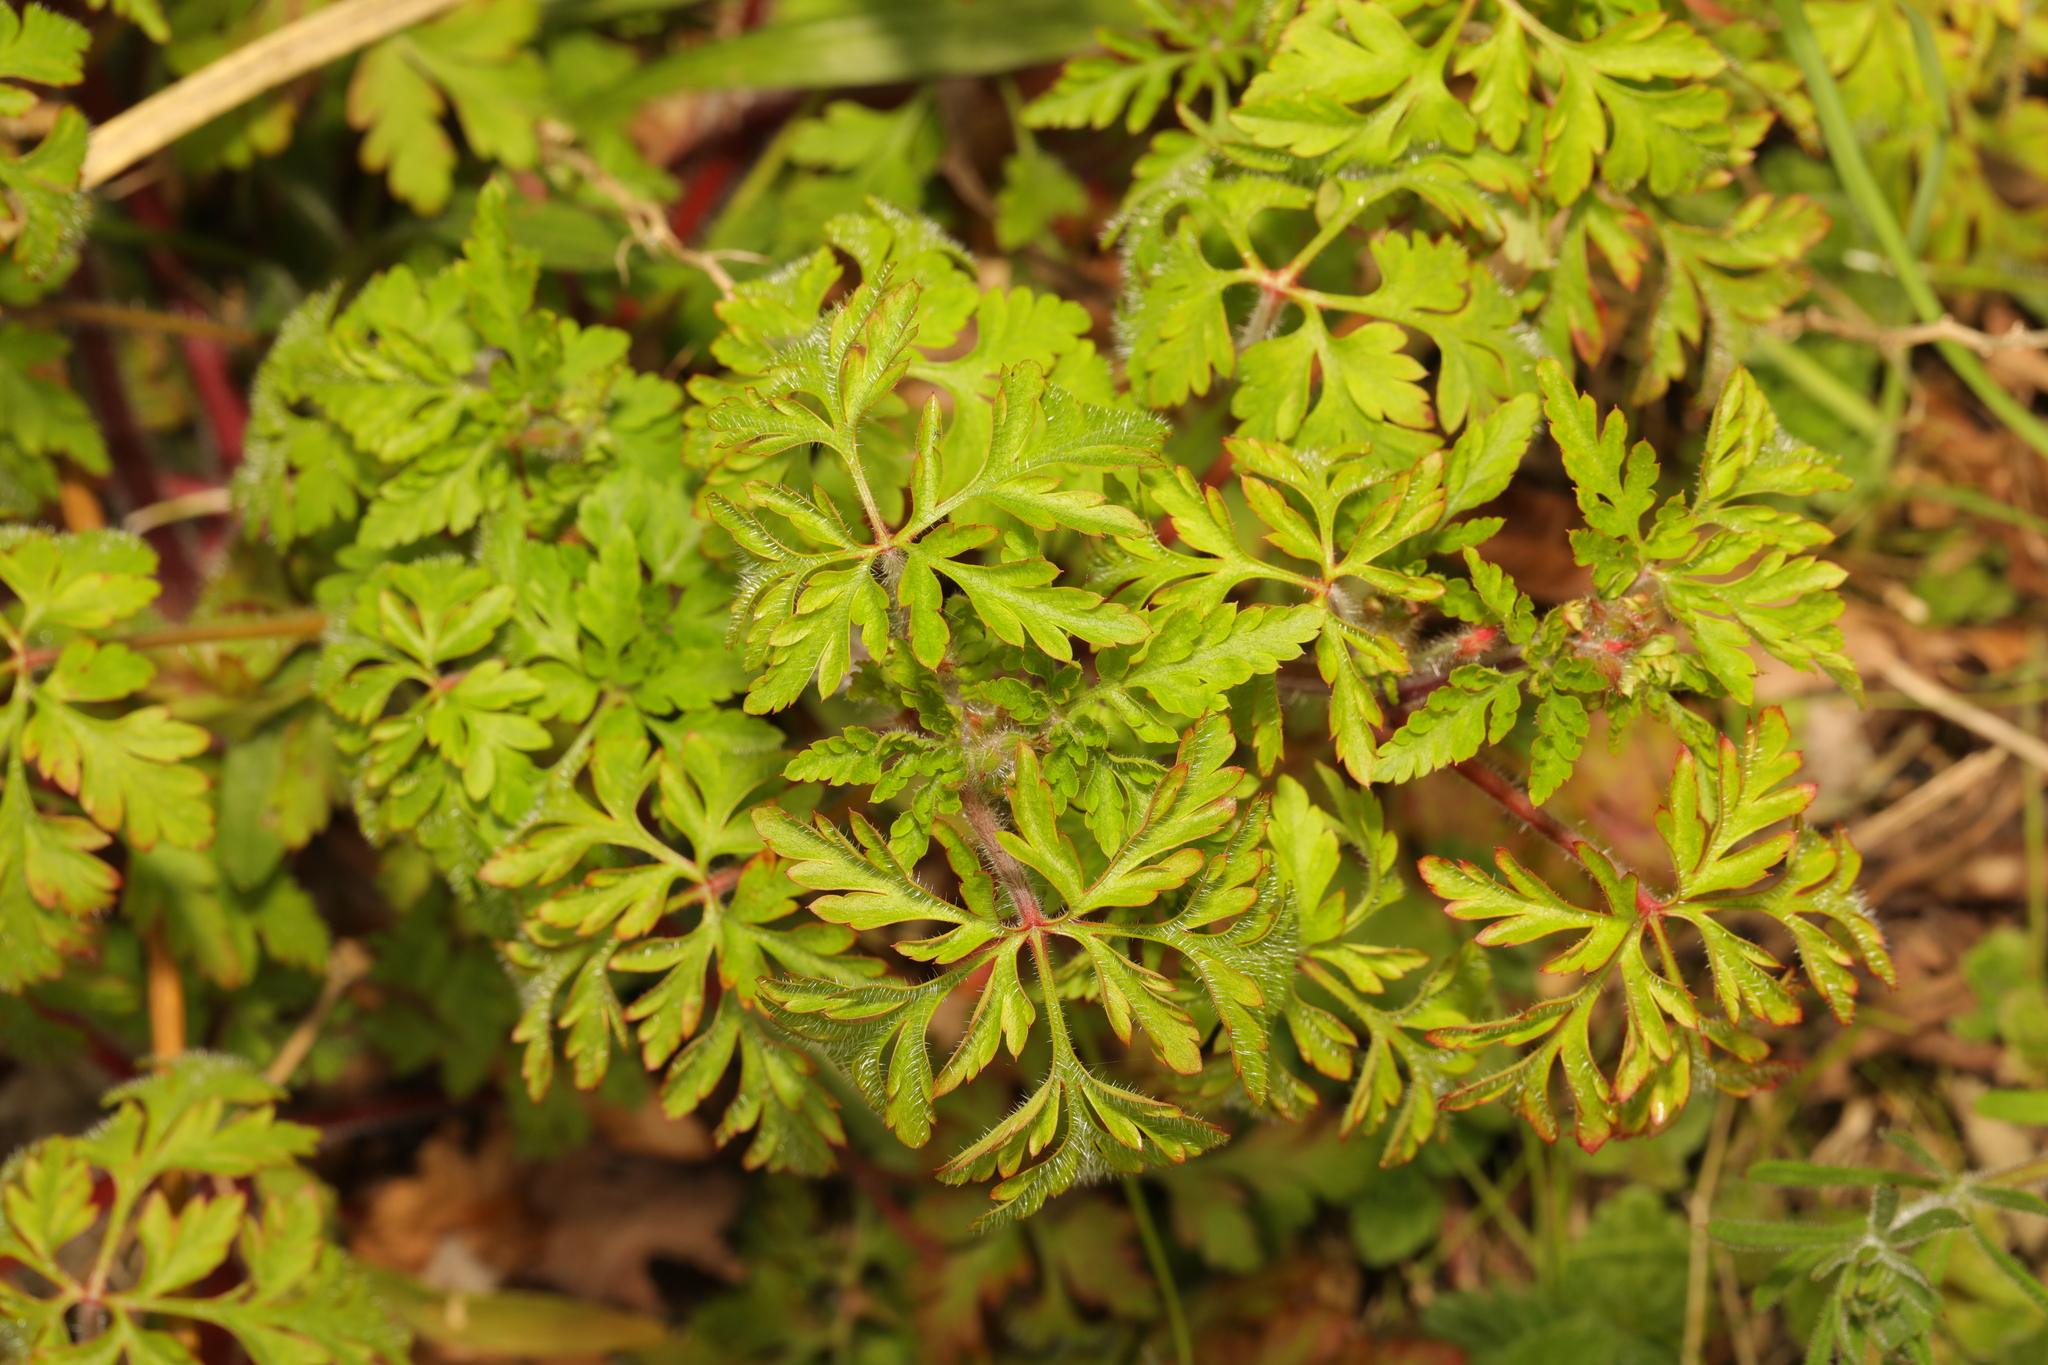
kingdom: Plantae
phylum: Tracheophyta
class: Magnoliopsida
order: Geraniales
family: Geraniaceae
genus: Geranium
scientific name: Geranium robertianum
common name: Herb-robert
